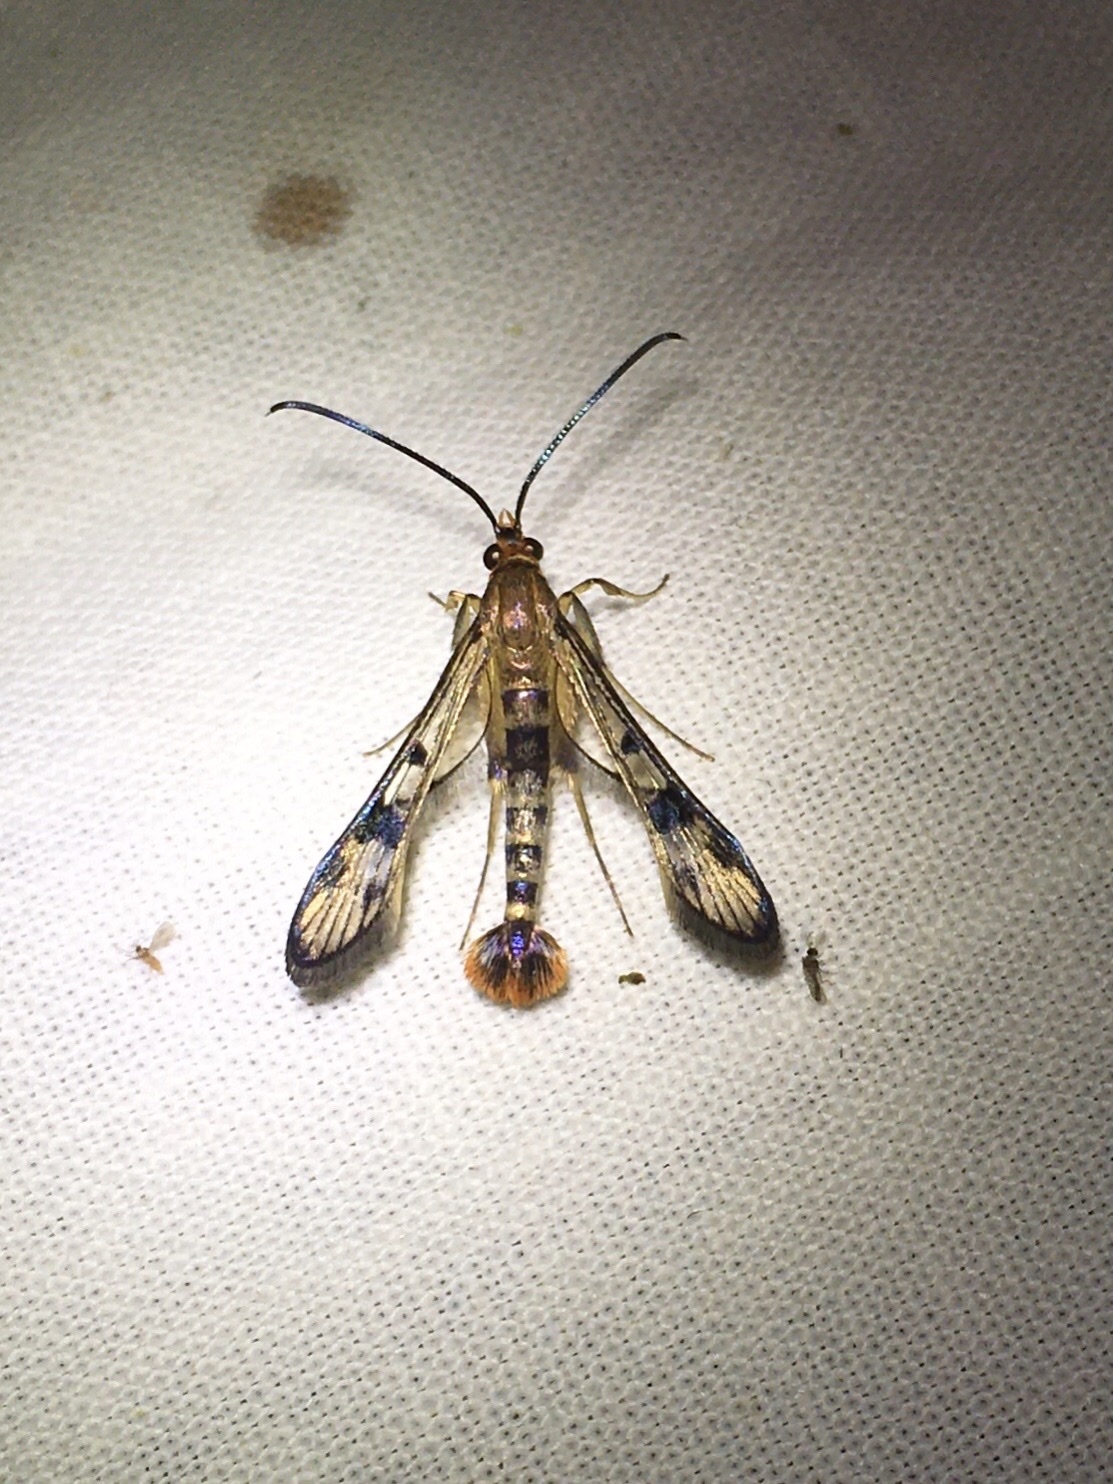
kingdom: Animalia
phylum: Arthropoda
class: Insecta
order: Lepidoptera
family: Sesiidae
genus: Synanthedon
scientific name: Synanthedon acerni
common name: Maple callus borer moth
